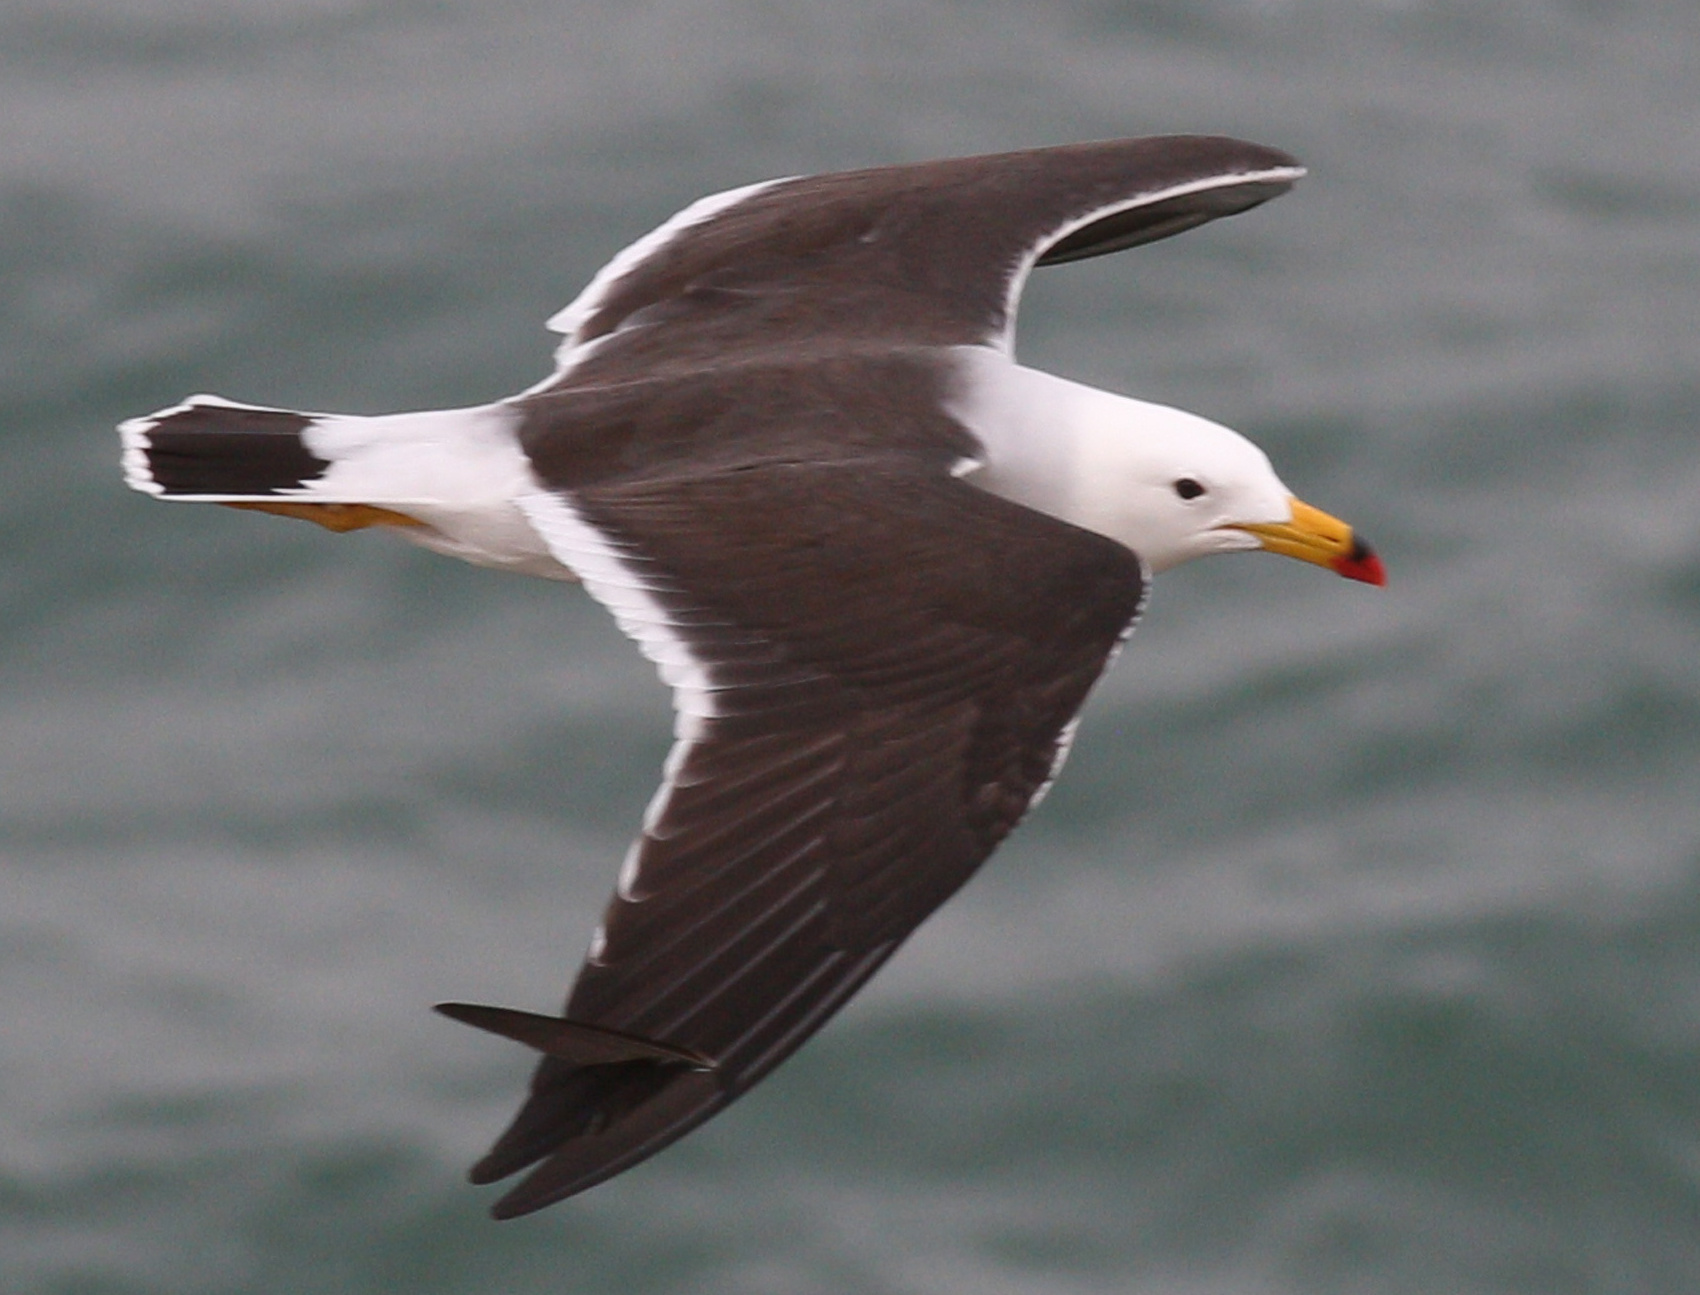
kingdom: Animalia
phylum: Chordata
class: Aves
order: Charadriiformes
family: Laridae
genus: Larus
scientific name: Larus belcheri
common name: Belcher's gull
